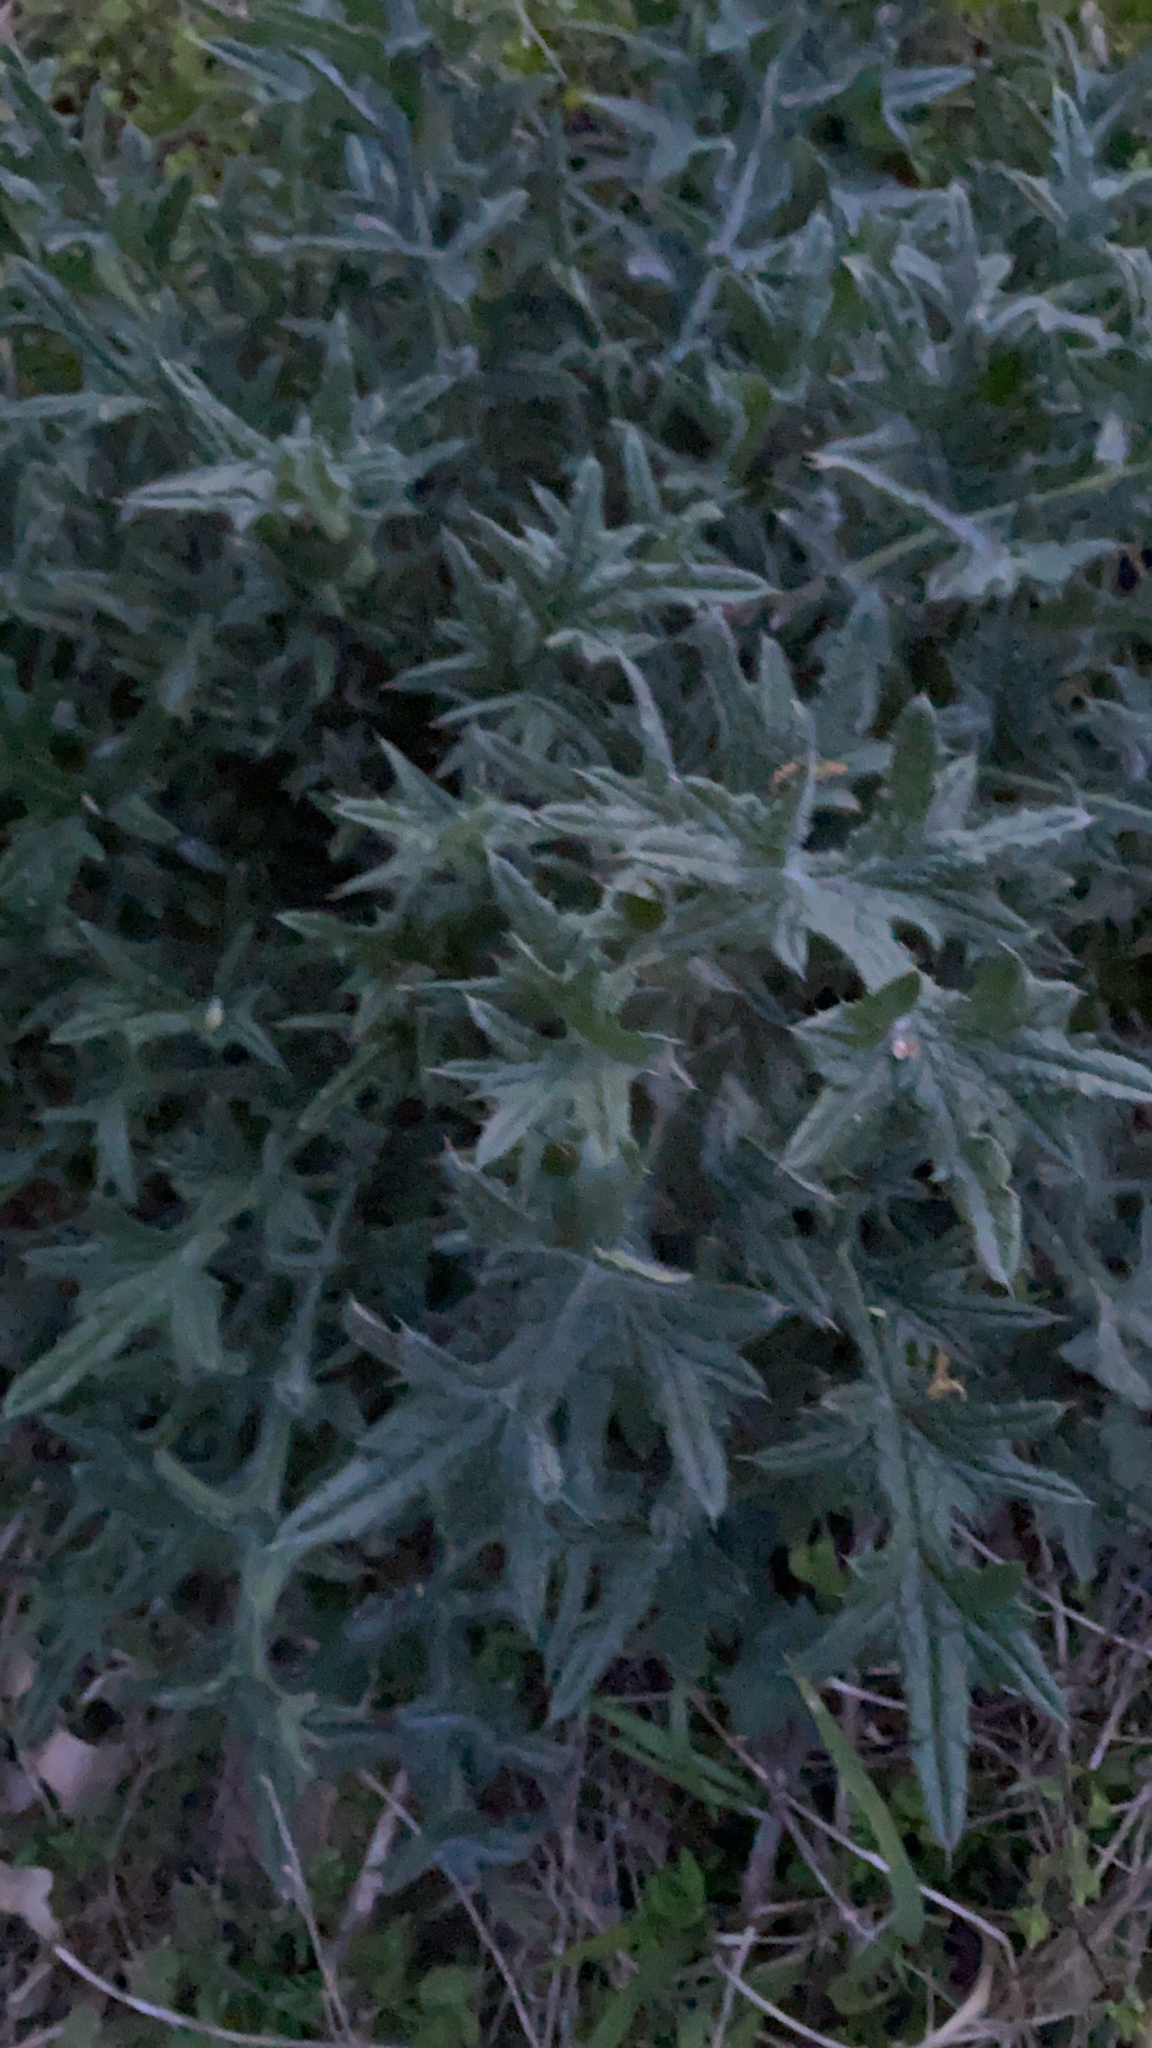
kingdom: Plantae
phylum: Tracheophyta
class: Magnoliopsida
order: Asterales
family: Asteraceae
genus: Cirsium
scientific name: Cirsium vulgare
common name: Bull thistle
